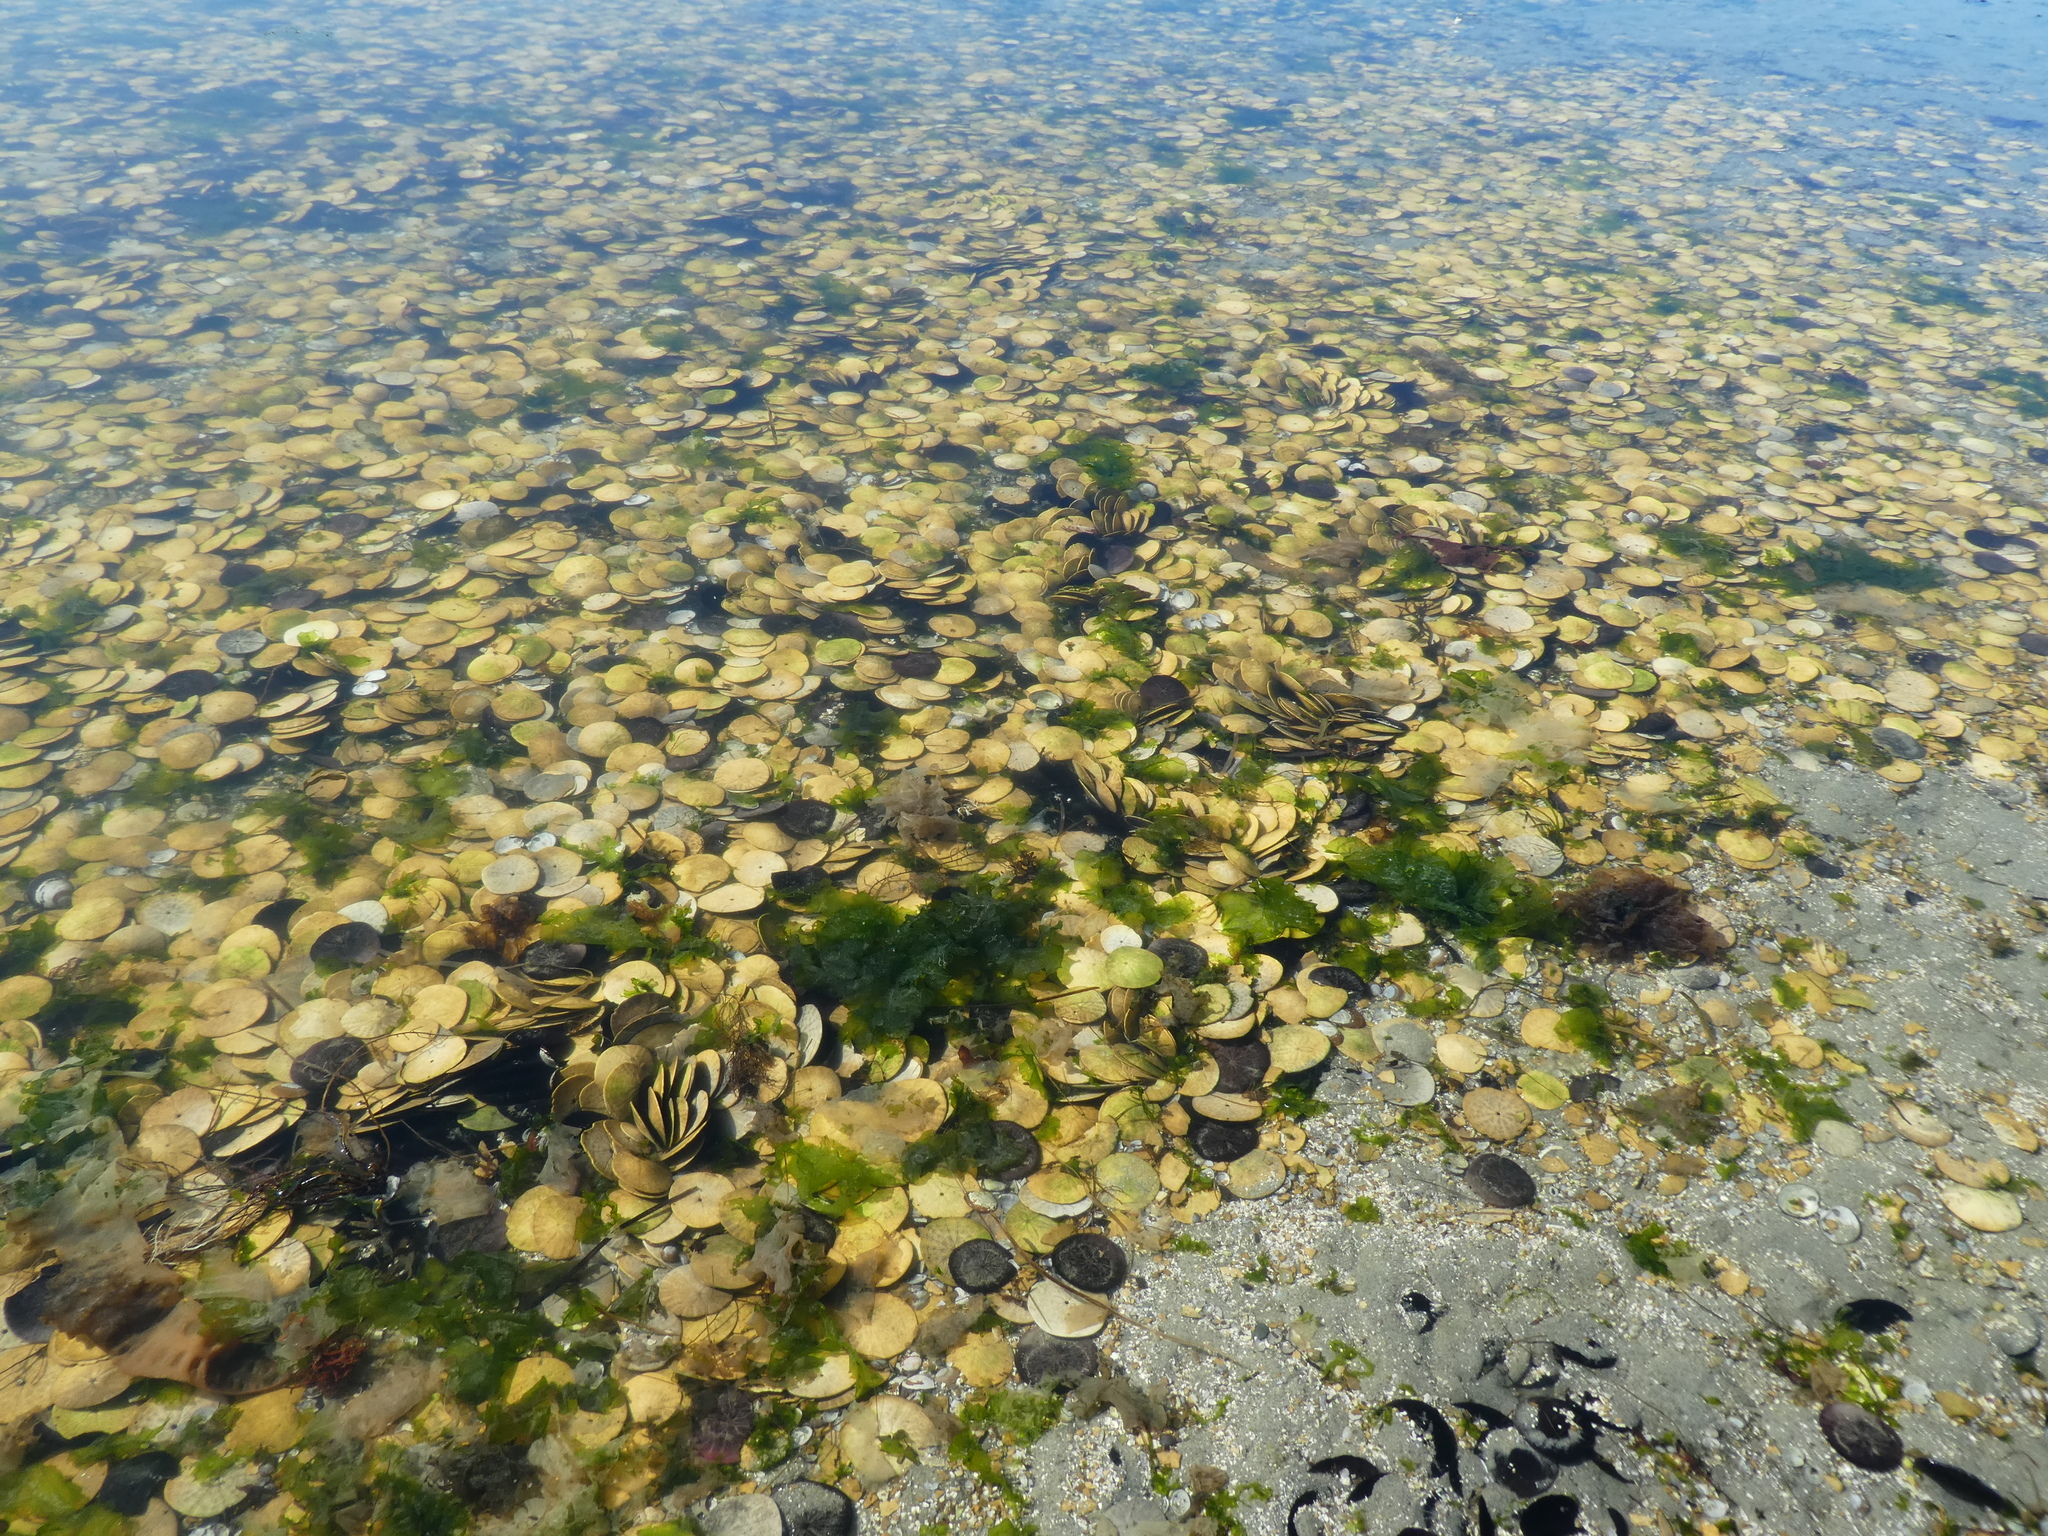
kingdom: Animalia
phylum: Echinodermata
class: Echinoidea
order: Echinolampadacea
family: Dendrasteridae
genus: Dendraster
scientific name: Dendraster excentricus
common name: Eccentric sand dollar sea urchin
